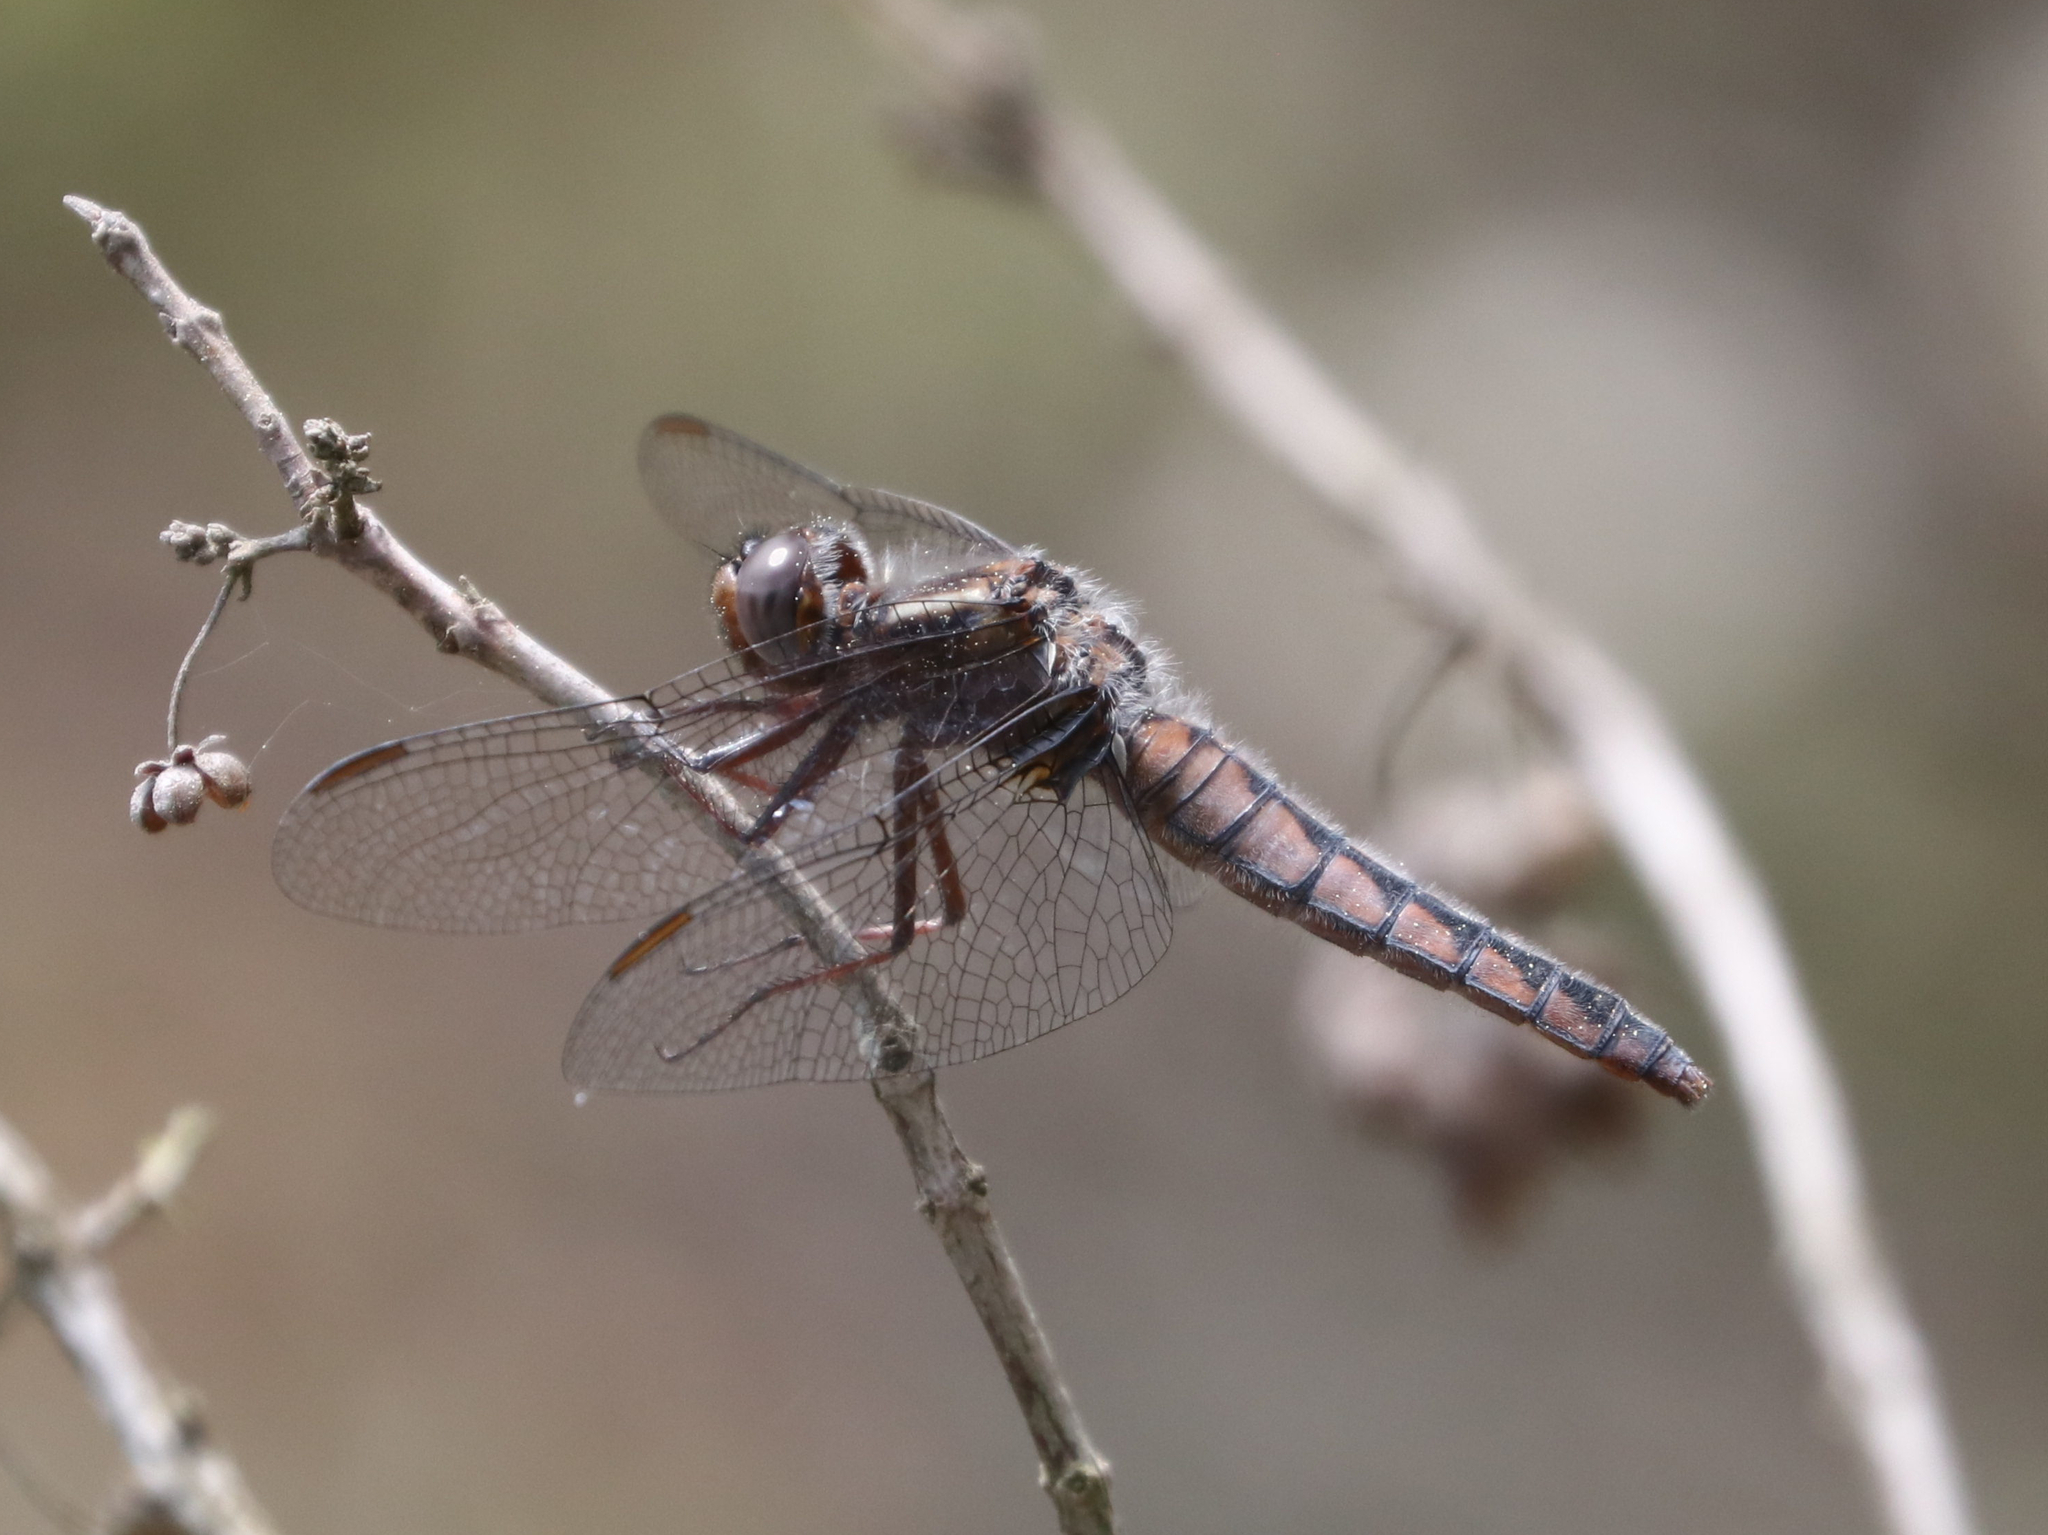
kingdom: Animalia
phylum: Arthropoda
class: Insecta
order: Odonata
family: Libellulidae
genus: Ladona
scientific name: Ladona deplanata
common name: Blue corporal
